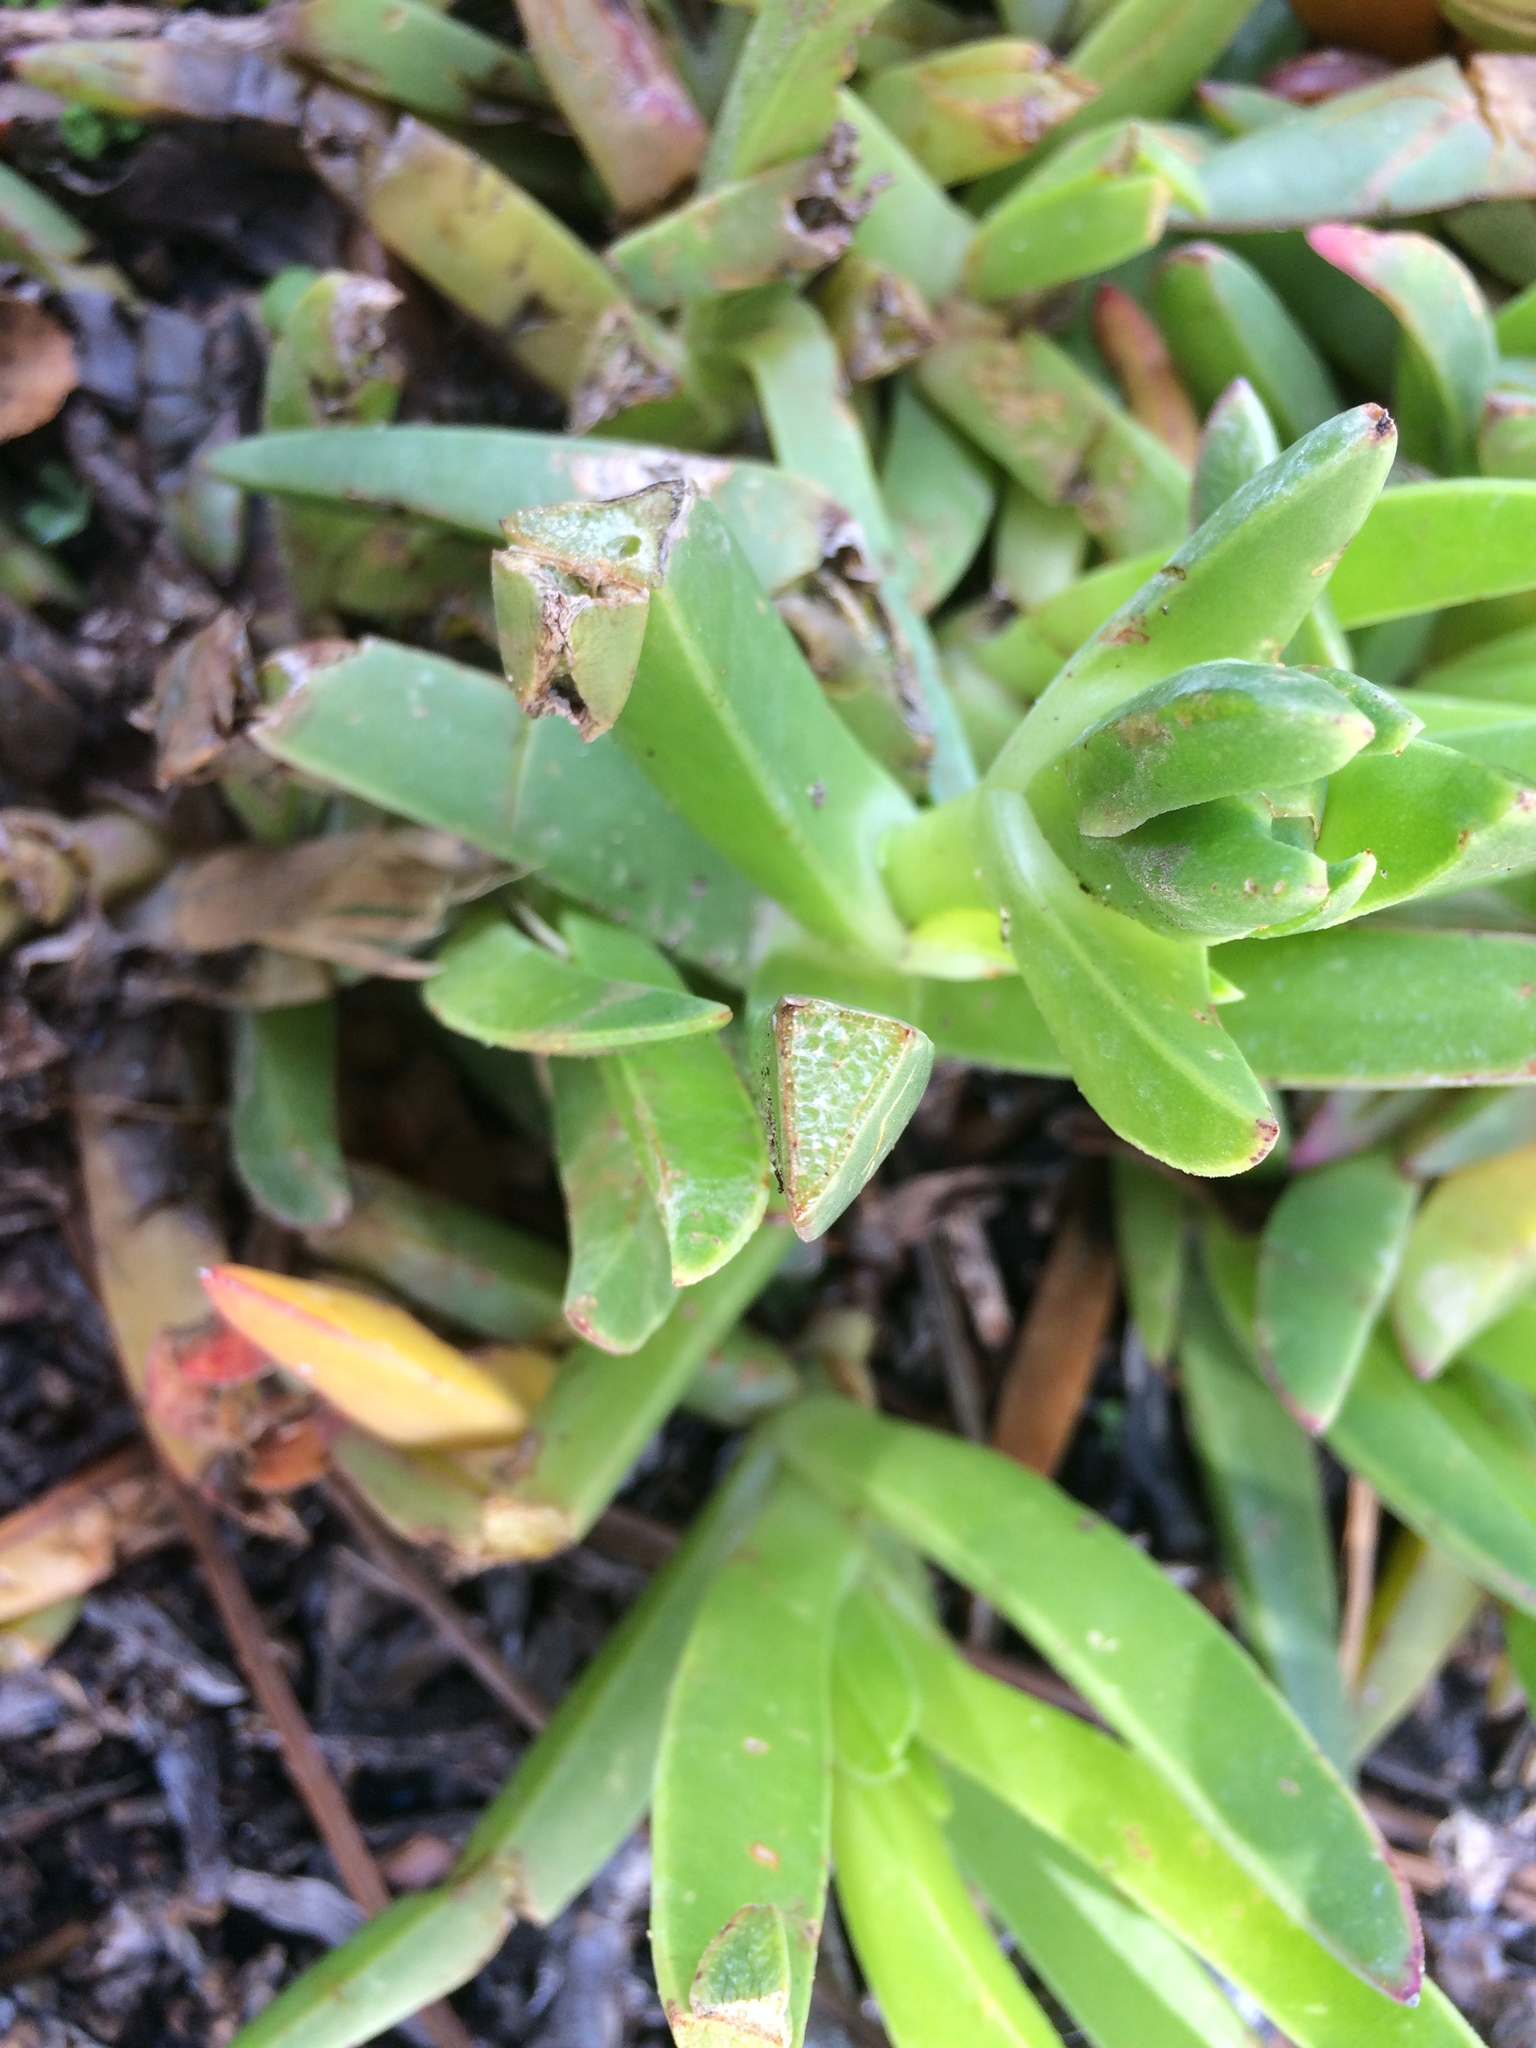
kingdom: Plantae
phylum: Tracheophyta
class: Magnoliopsida
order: Caryophyllales
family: Aizoaceae
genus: Carpobrotus
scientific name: Carpobrotus acinaciformis
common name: Sally-my-handsome
